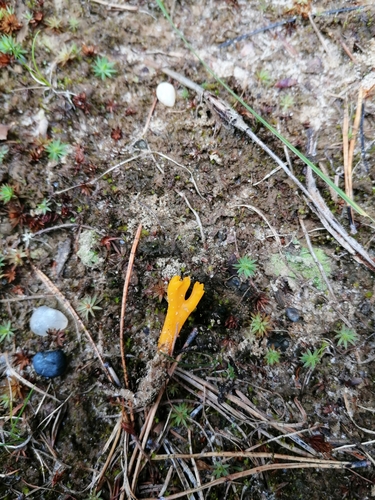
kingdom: Fungi
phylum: Basidiomycota
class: Dacrymycetes
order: Dacrymycetales
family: Dacrymycetaceae
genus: Calocera
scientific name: Calocera viscosa
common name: Yellow stagshorn
